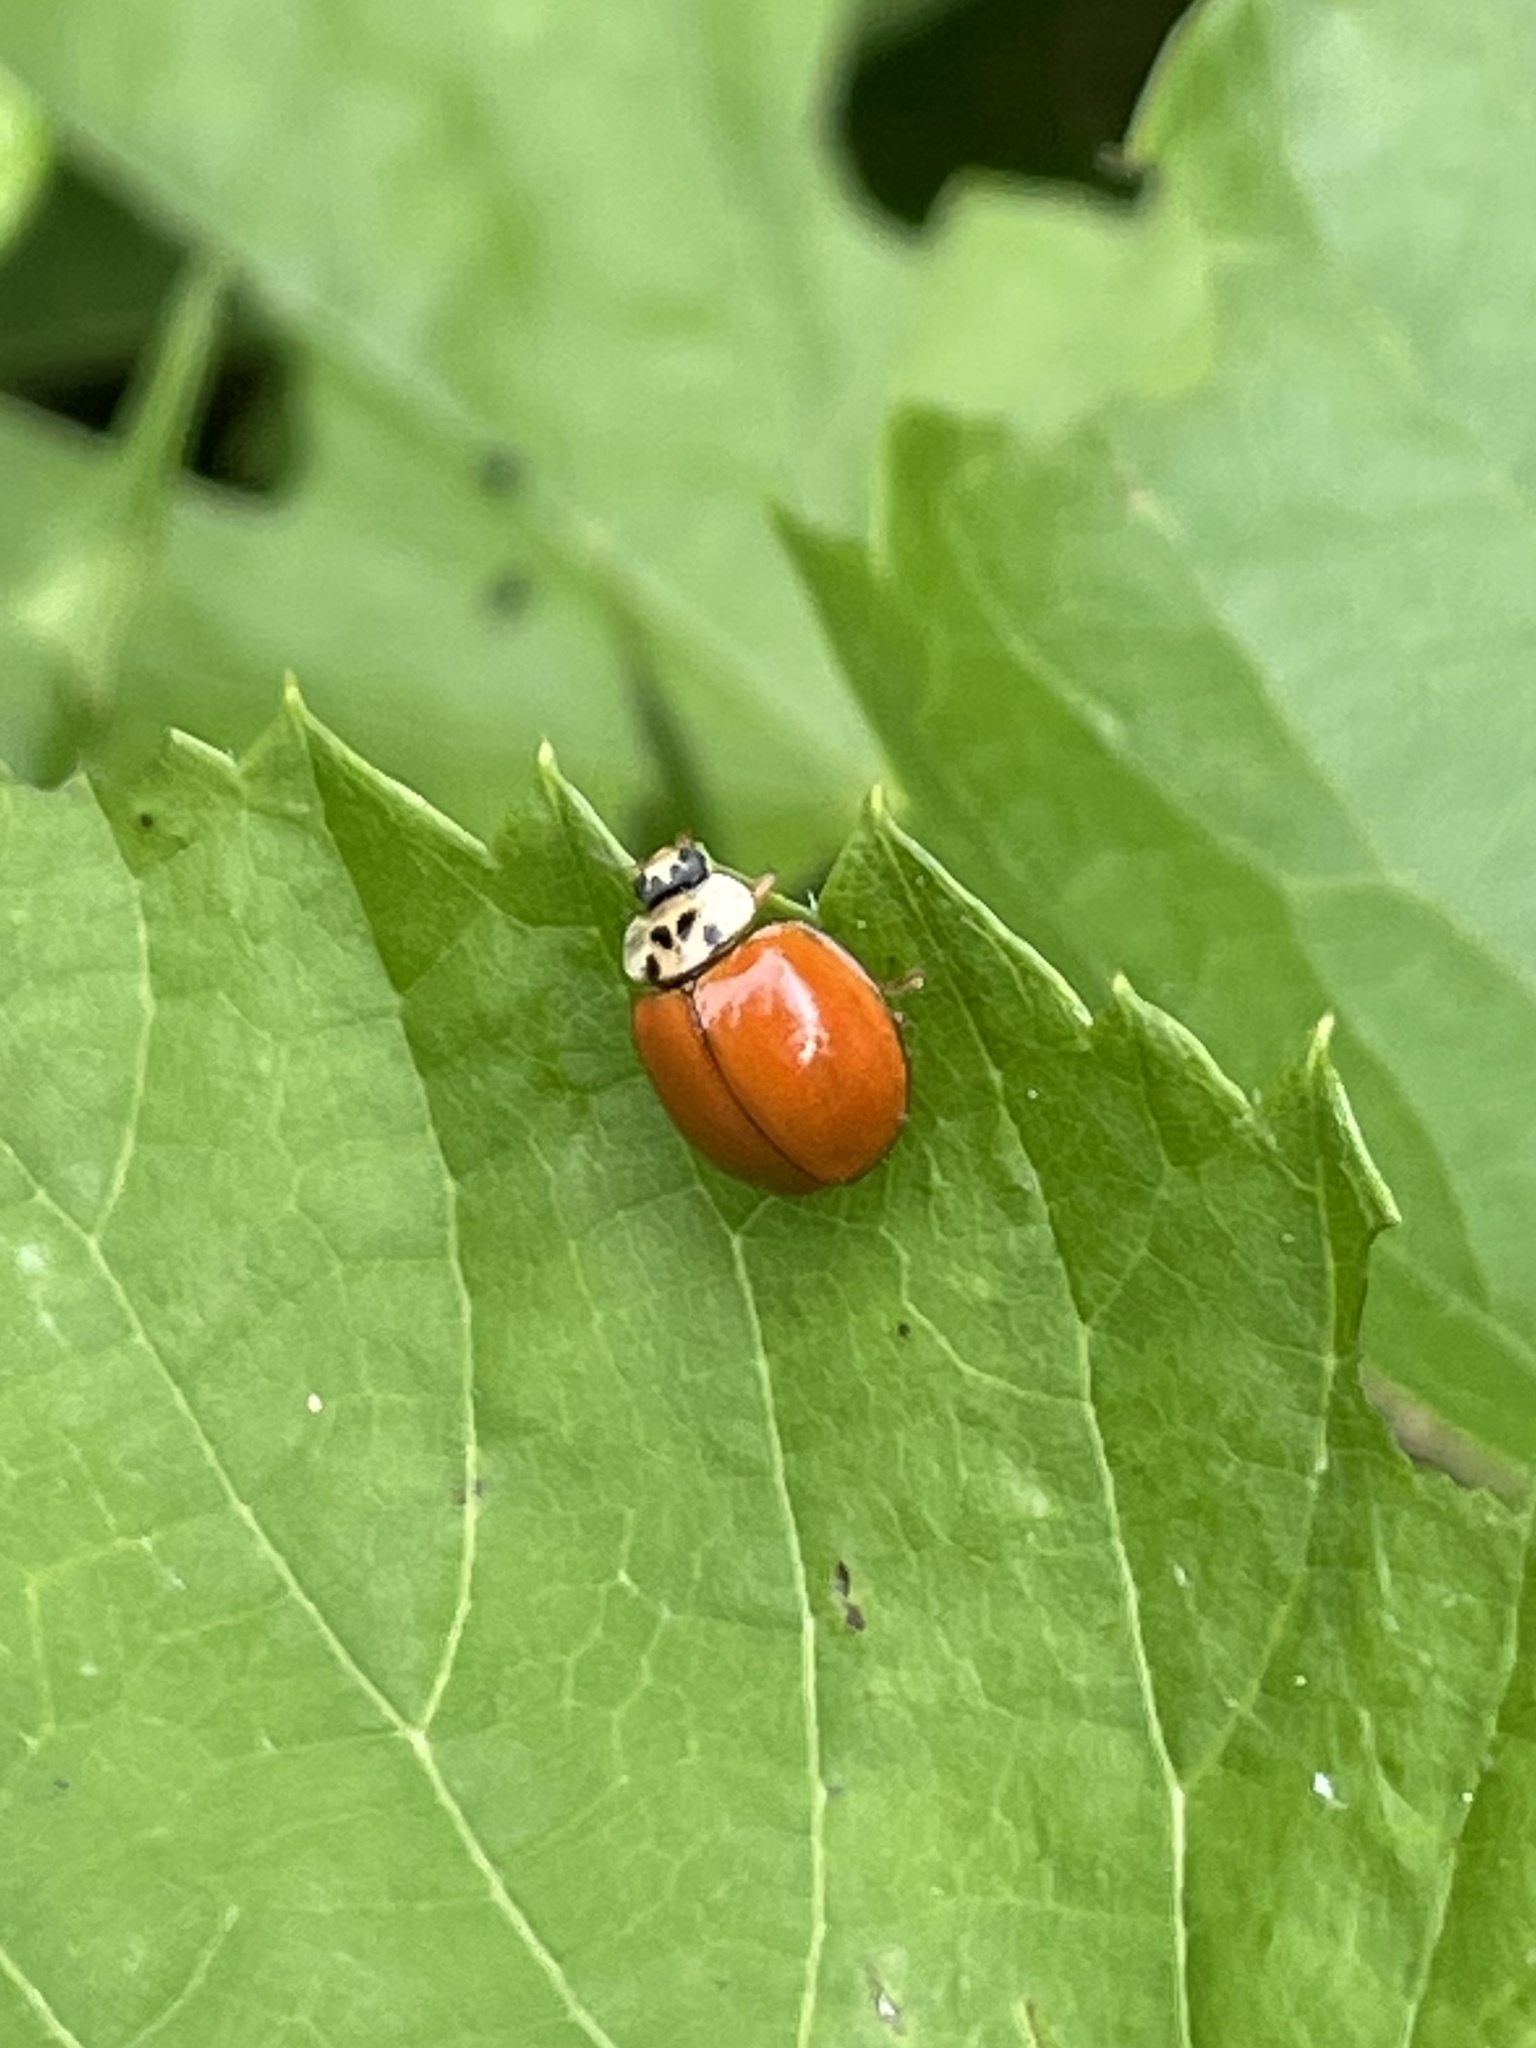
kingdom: Animalia
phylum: Arthropoda
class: Insecta
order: Coleoptera
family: Coccinellidae
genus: Harmonia
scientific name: Harmonia axyridis
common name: Harlequin ladybird
